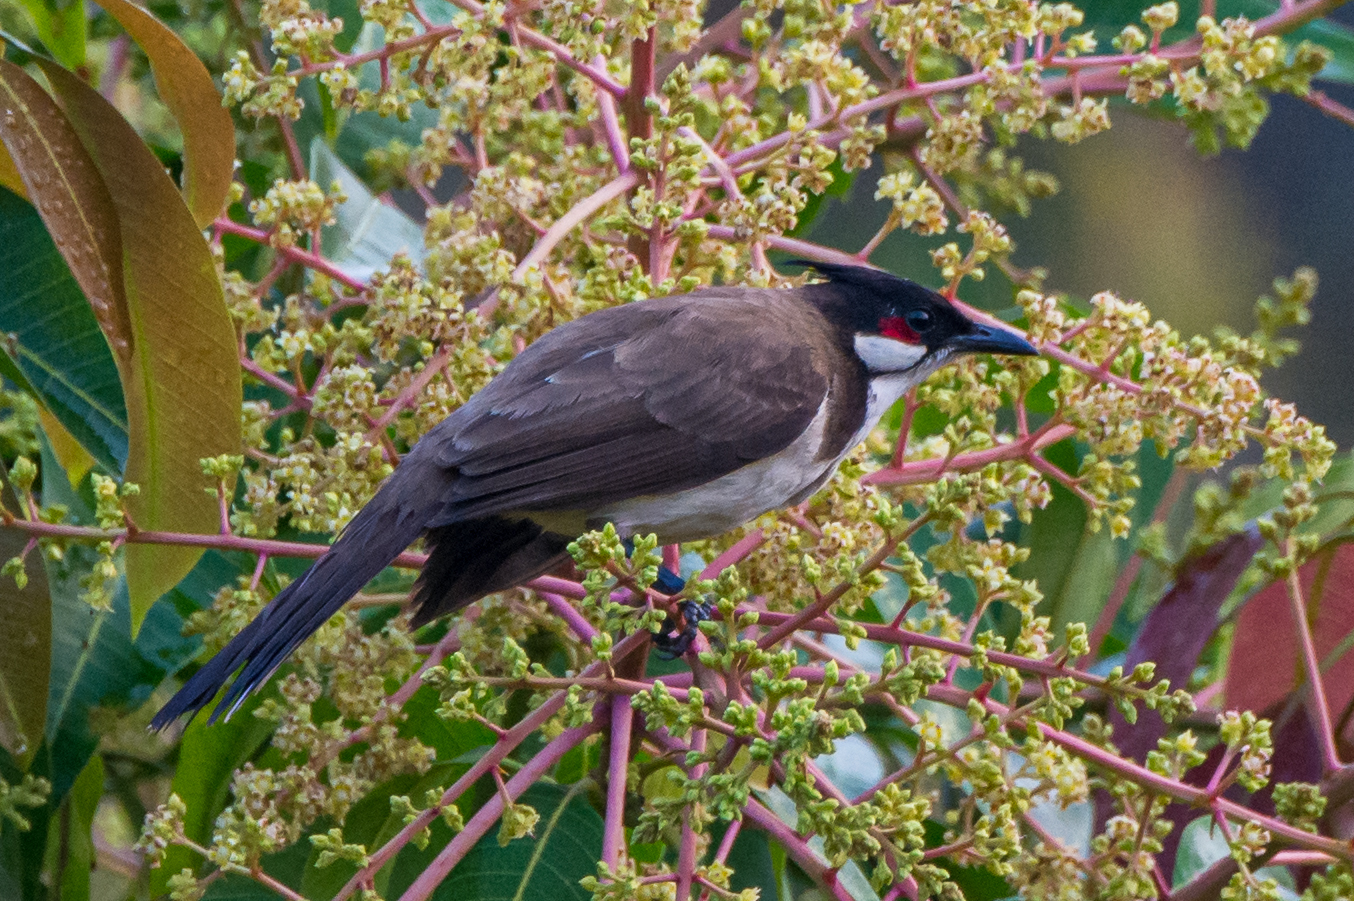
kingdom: Animalia
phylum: Chordata
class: Aves
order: Passeriformes
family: Pycnonotidae
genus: Pycnonotus
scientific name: Pycnonotus jocosus
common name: Red-whiskered bulbul
